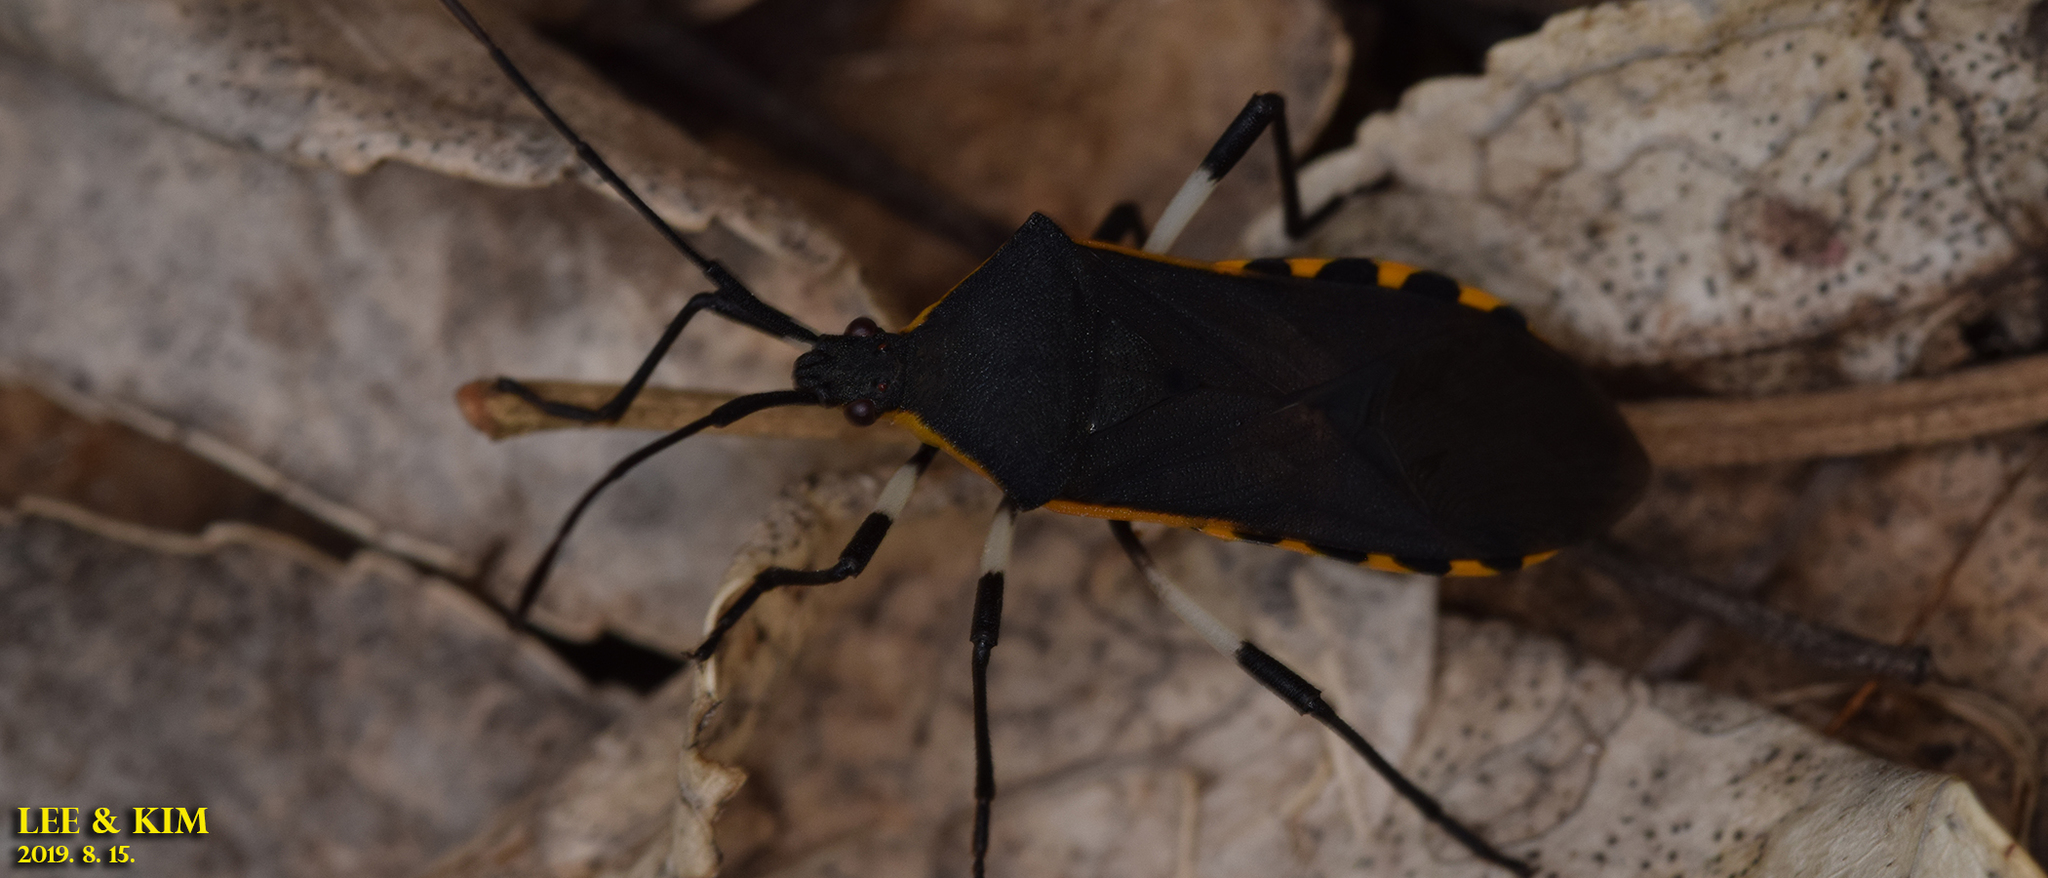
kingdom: Animalia
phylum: Arthropoda
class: Insecta
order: Hemiptera
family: Coreidae
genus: Plinachtus
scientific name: Plinachtus bicoloripes
